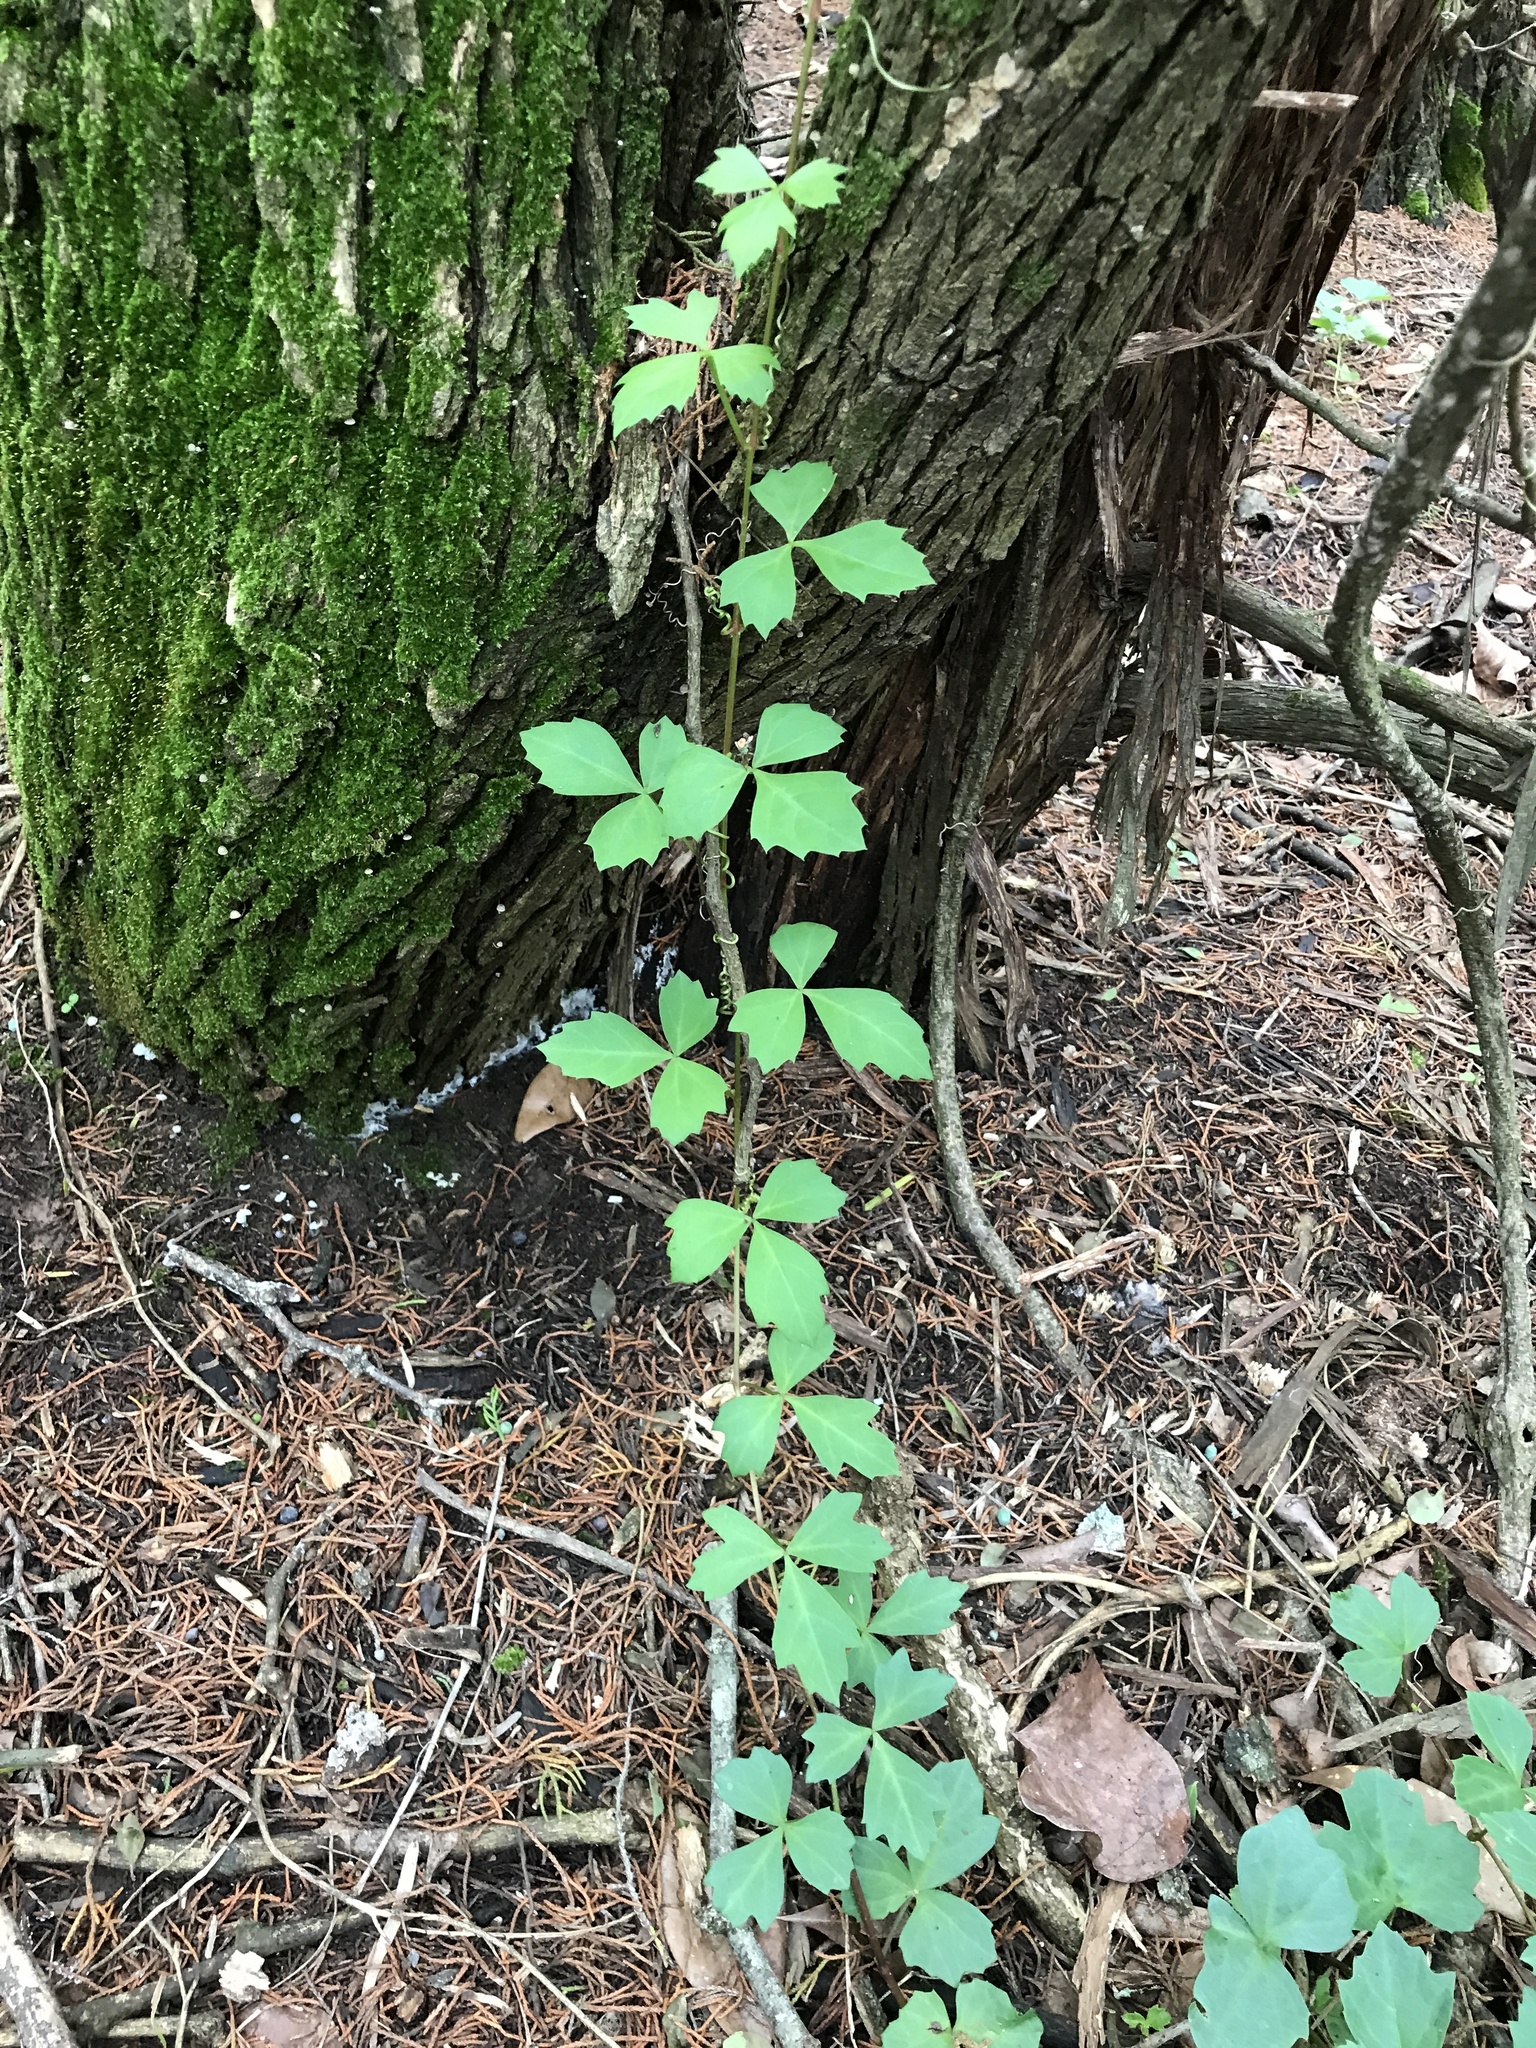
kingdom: Plantae
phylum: Tracheophyta
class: Magnoliopsida
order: Vitales
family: Vitaceae
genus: Cissus
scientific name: Cissus trifoliata
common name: Vine-sorrel
